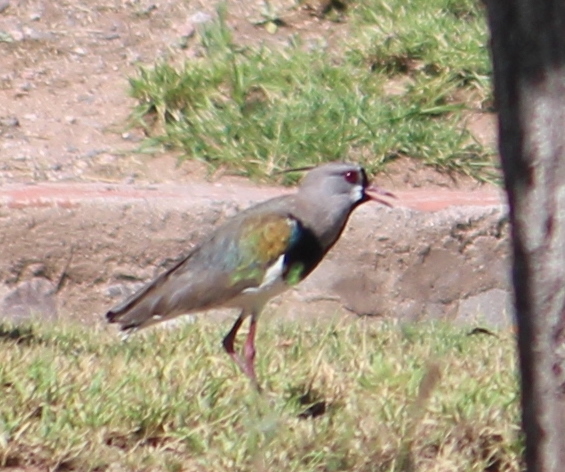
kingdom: Animalia
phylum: Chordata
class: Aves
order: Charadriiformes
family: Charadriidae
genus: Vanellus
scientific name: Vanellus chilensis
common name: Southern lapwing
